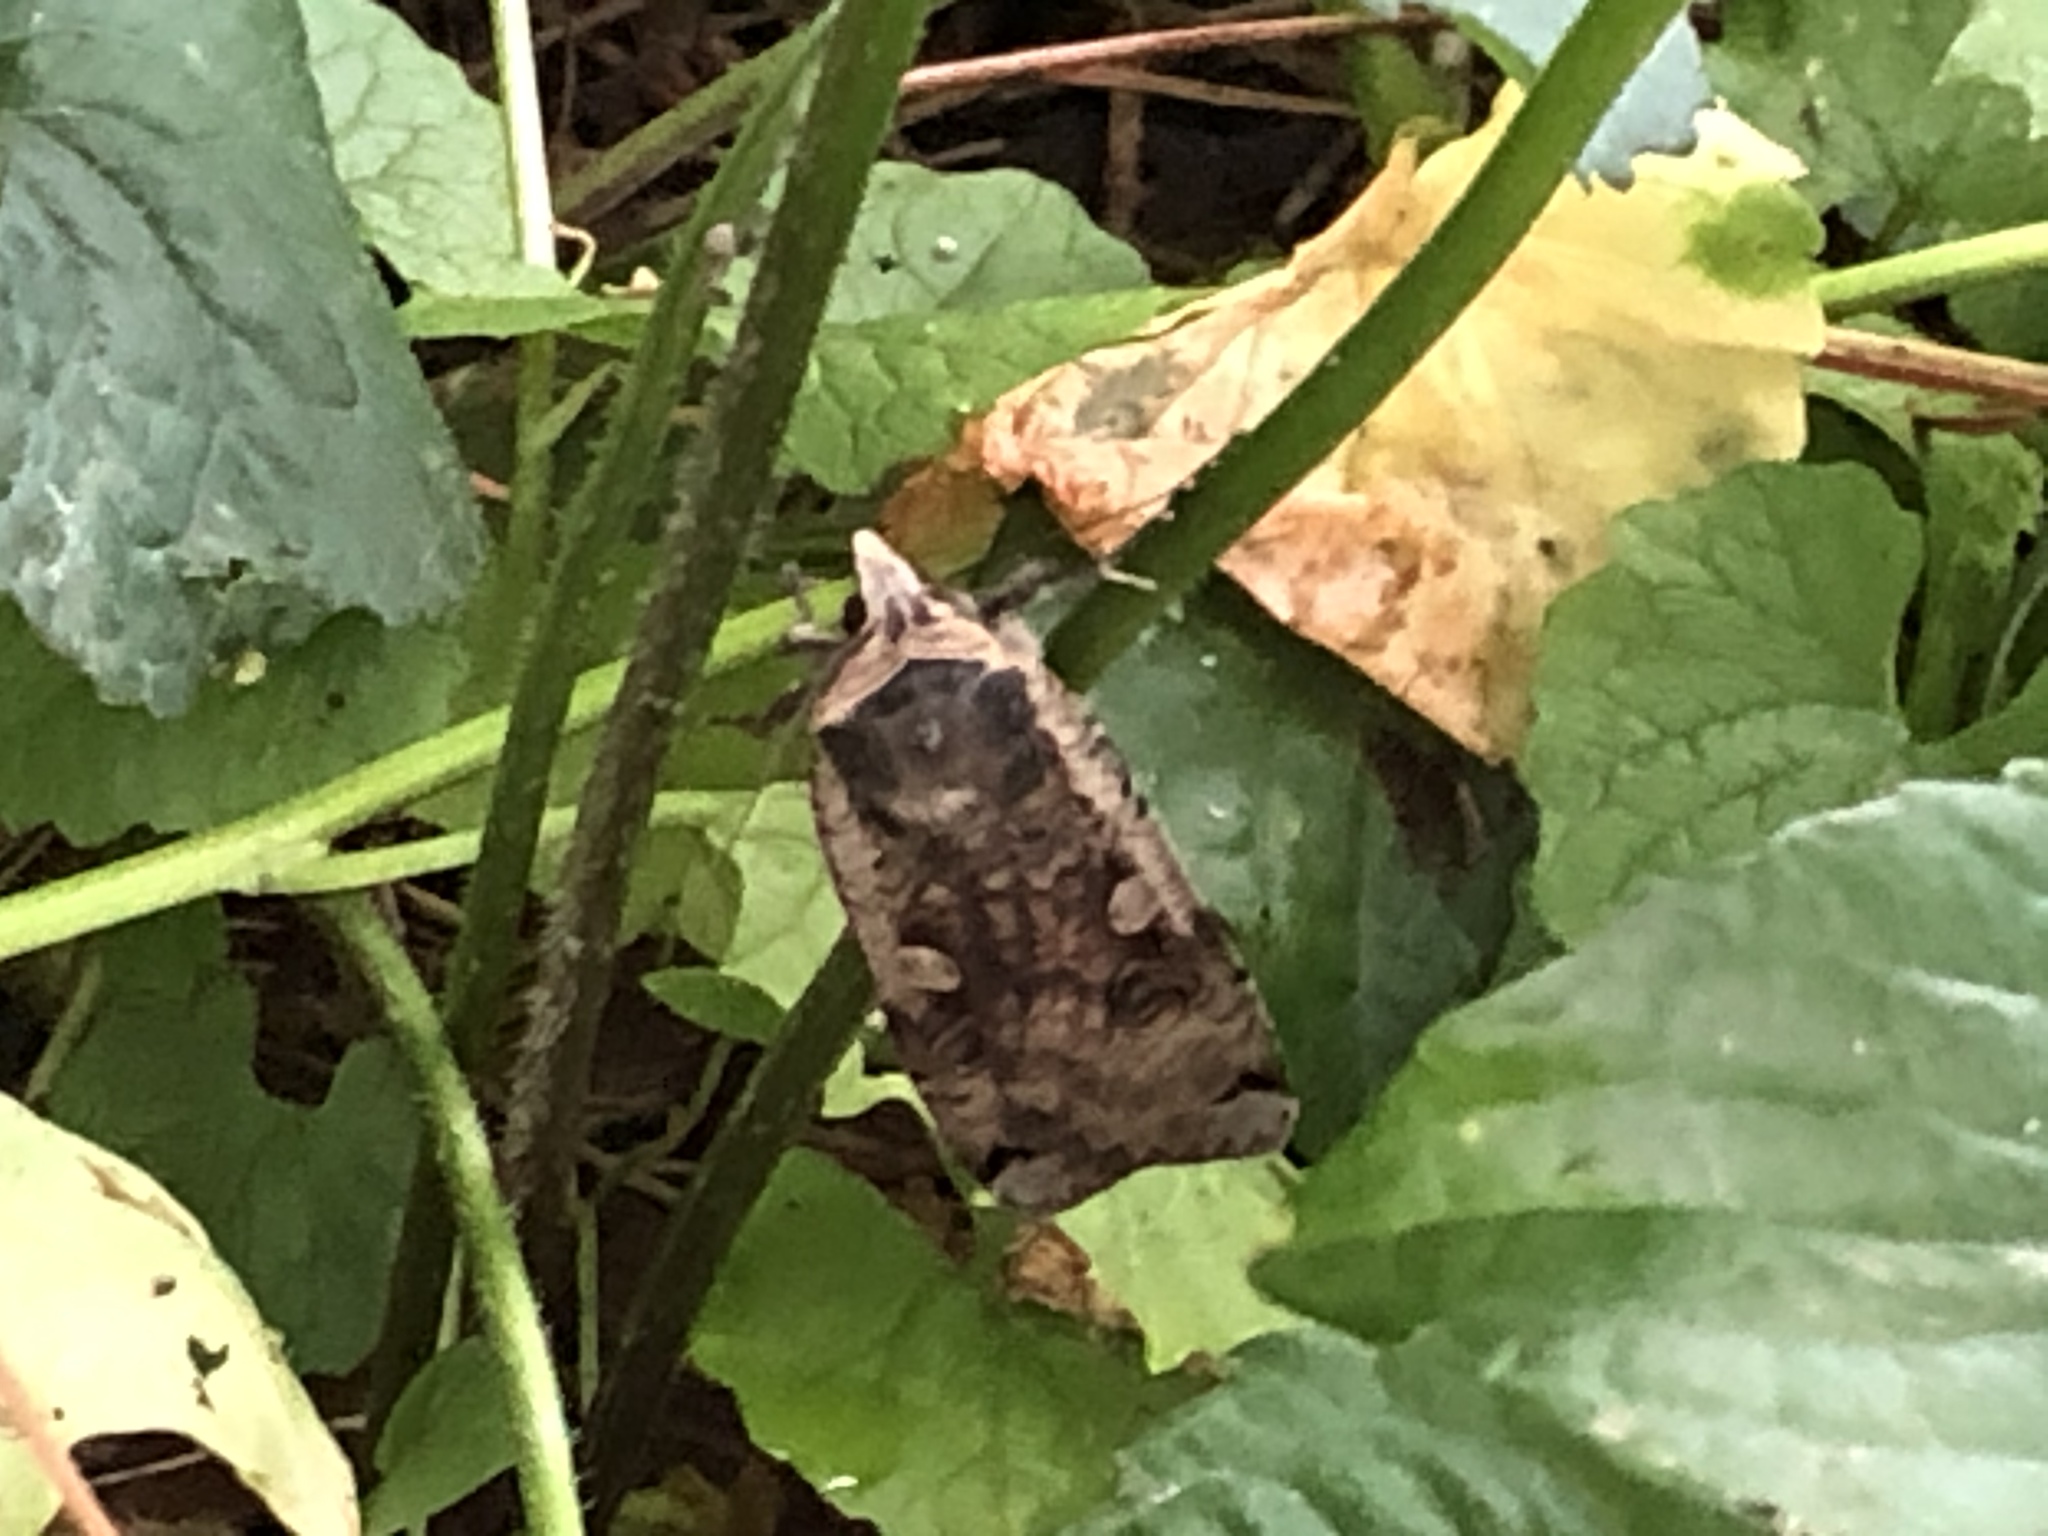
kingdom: Animalia
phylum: Arthropoda
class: Insecta
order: Lepidoptera
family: Noctuidae
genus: Noctua
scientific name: Noctua pronuba
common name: Large yellow underwing
